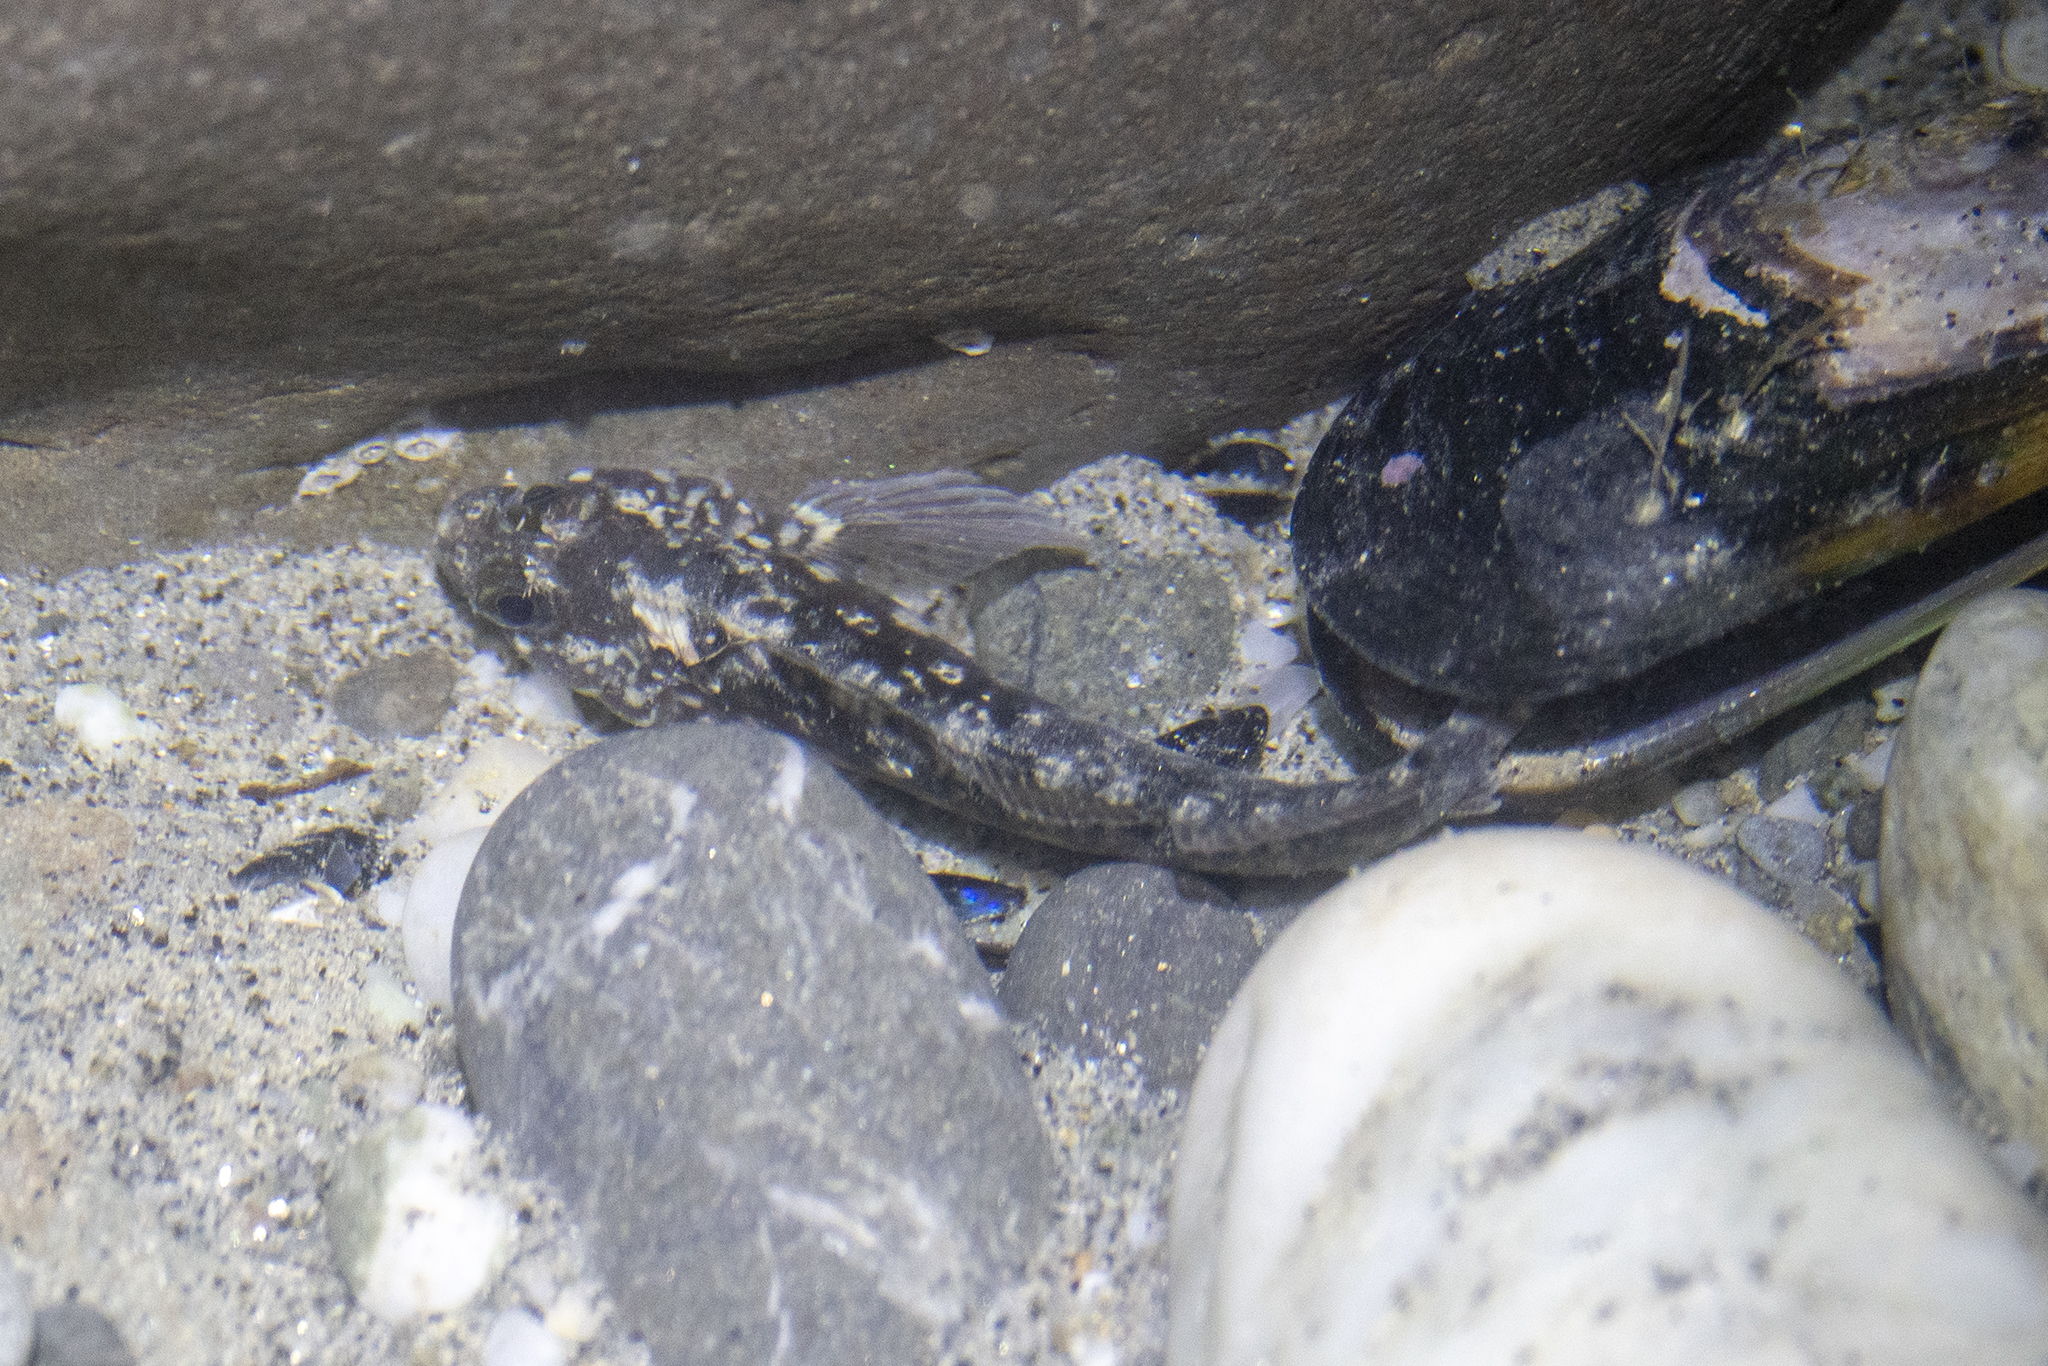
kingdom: Animalia
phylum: Chordata
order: Perciformes
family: Tripterygiidae
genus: Forsterygion
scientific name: Forsterygion gymnotum
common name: Multifid-tentacled robust triplefin
